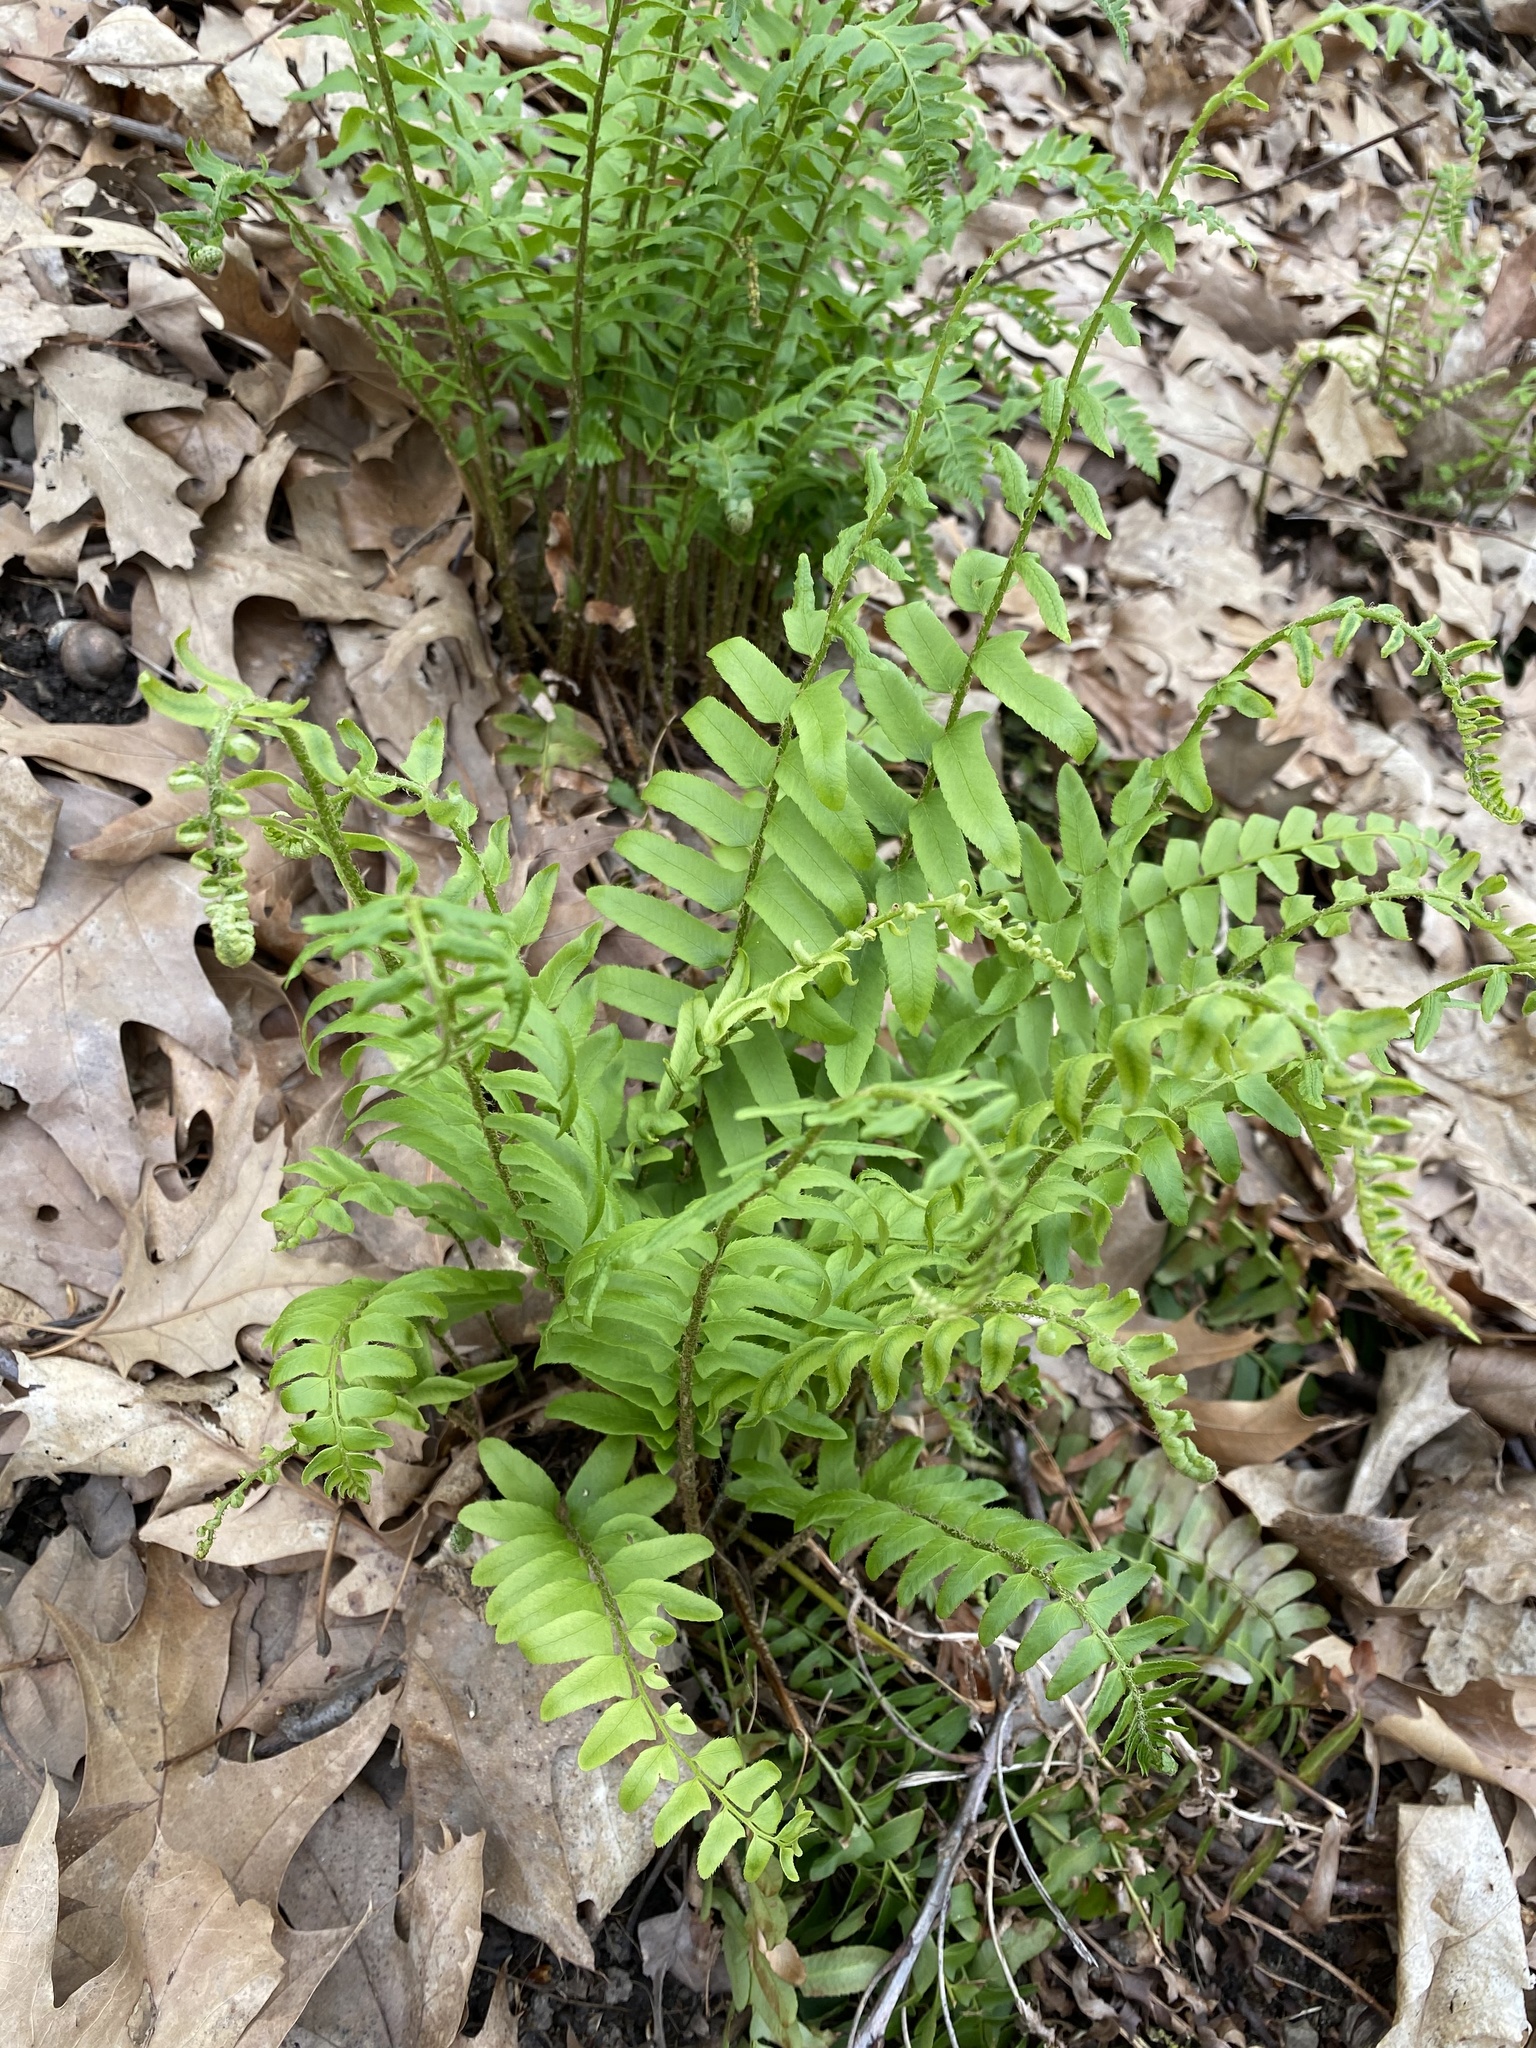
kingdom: Plantae
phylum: Tracheophyta
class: Polypodiopsida
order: Polypodiales
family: Dryopteridaceae
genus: Polystichum
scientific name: Polystichum acrostichoides
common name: Christmas fern
